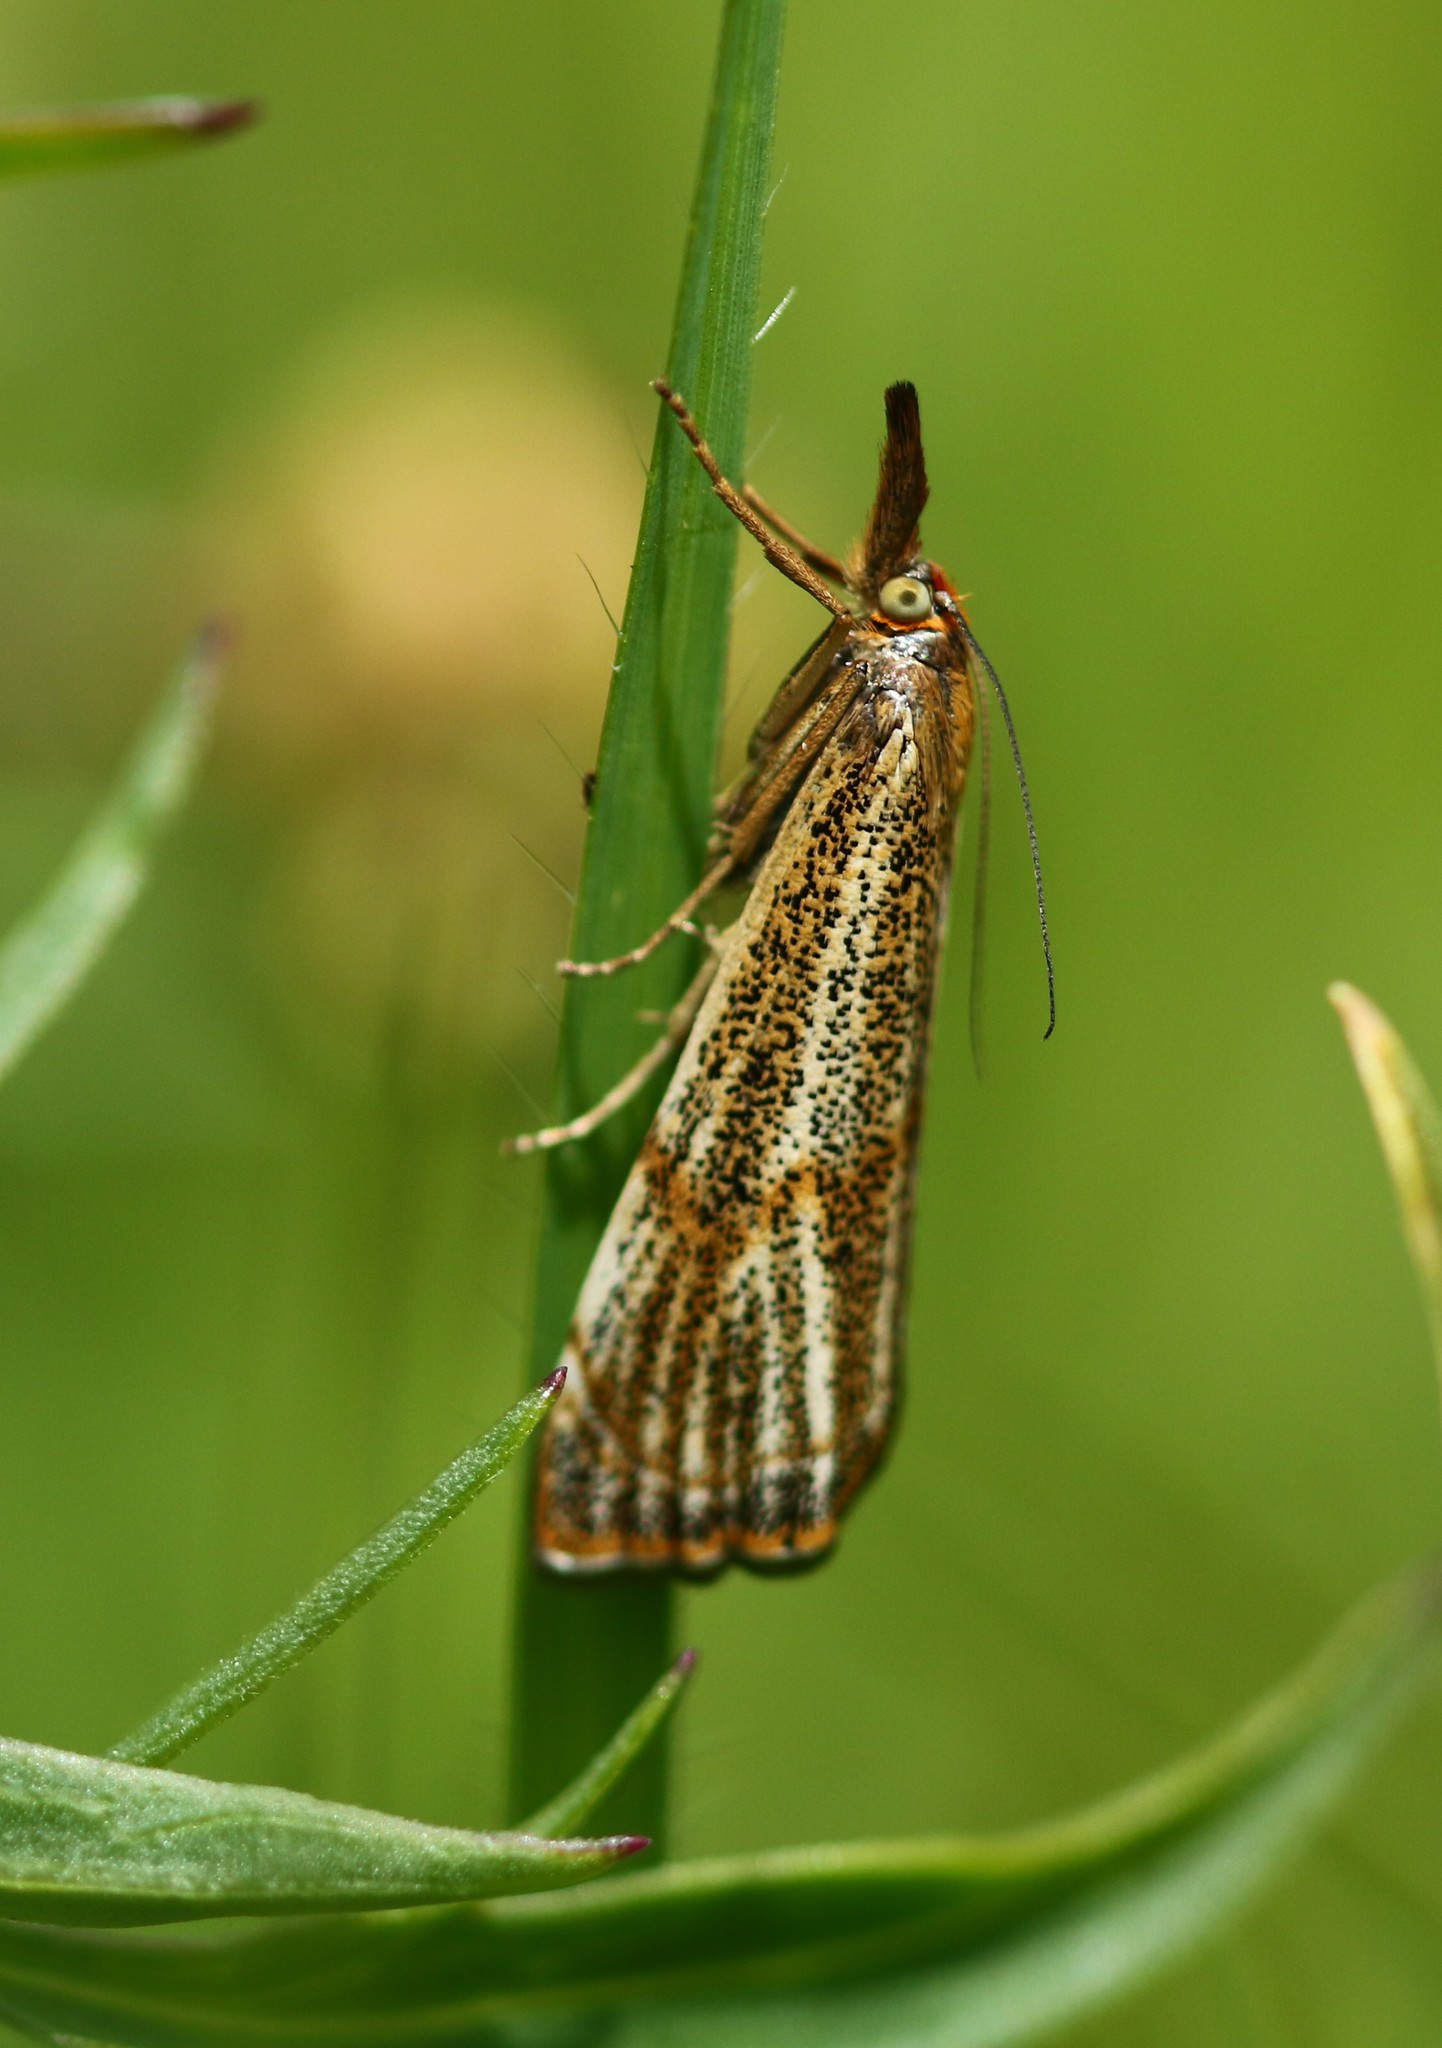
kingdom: Animalia
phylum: Arthropoda
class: Insecta
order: Lepidoptera
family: Crambidae
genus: Thisanotia
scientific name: Thisanotia chrysonuchella
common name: Powdered grass-veneer
